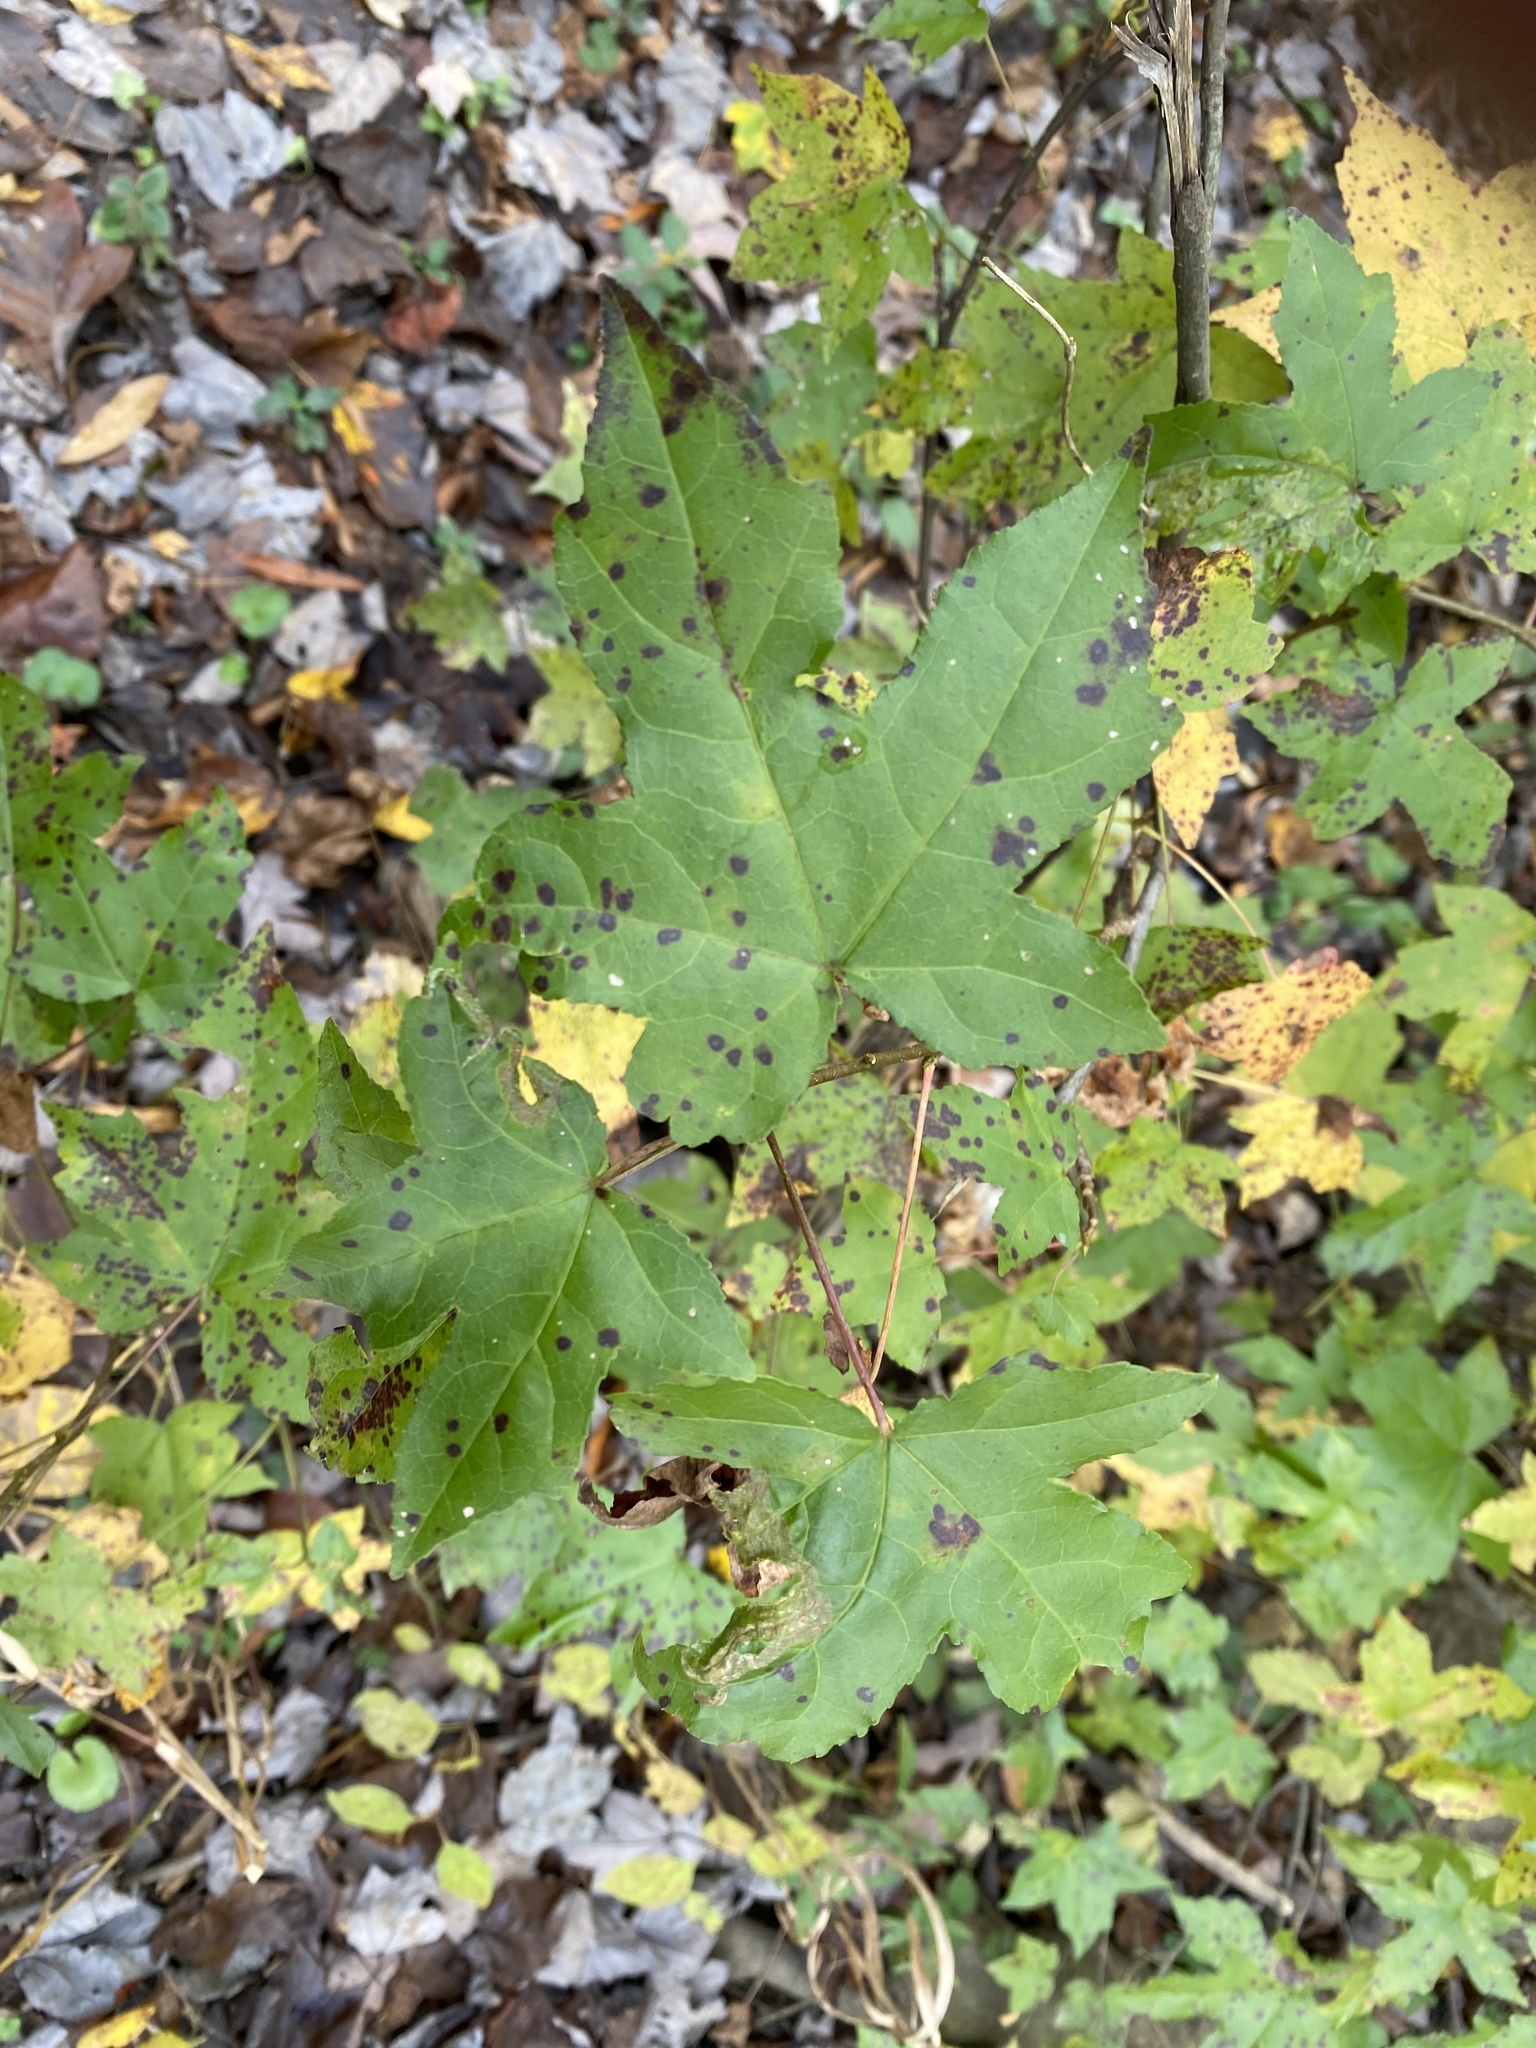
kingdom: Plantae
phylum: Tracheophyta
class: Magnoliopsida
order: Saxifragales
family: Altingiaceae
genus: Liquidambar
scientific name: Liquidambar styraciflua
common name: Sweet gum
